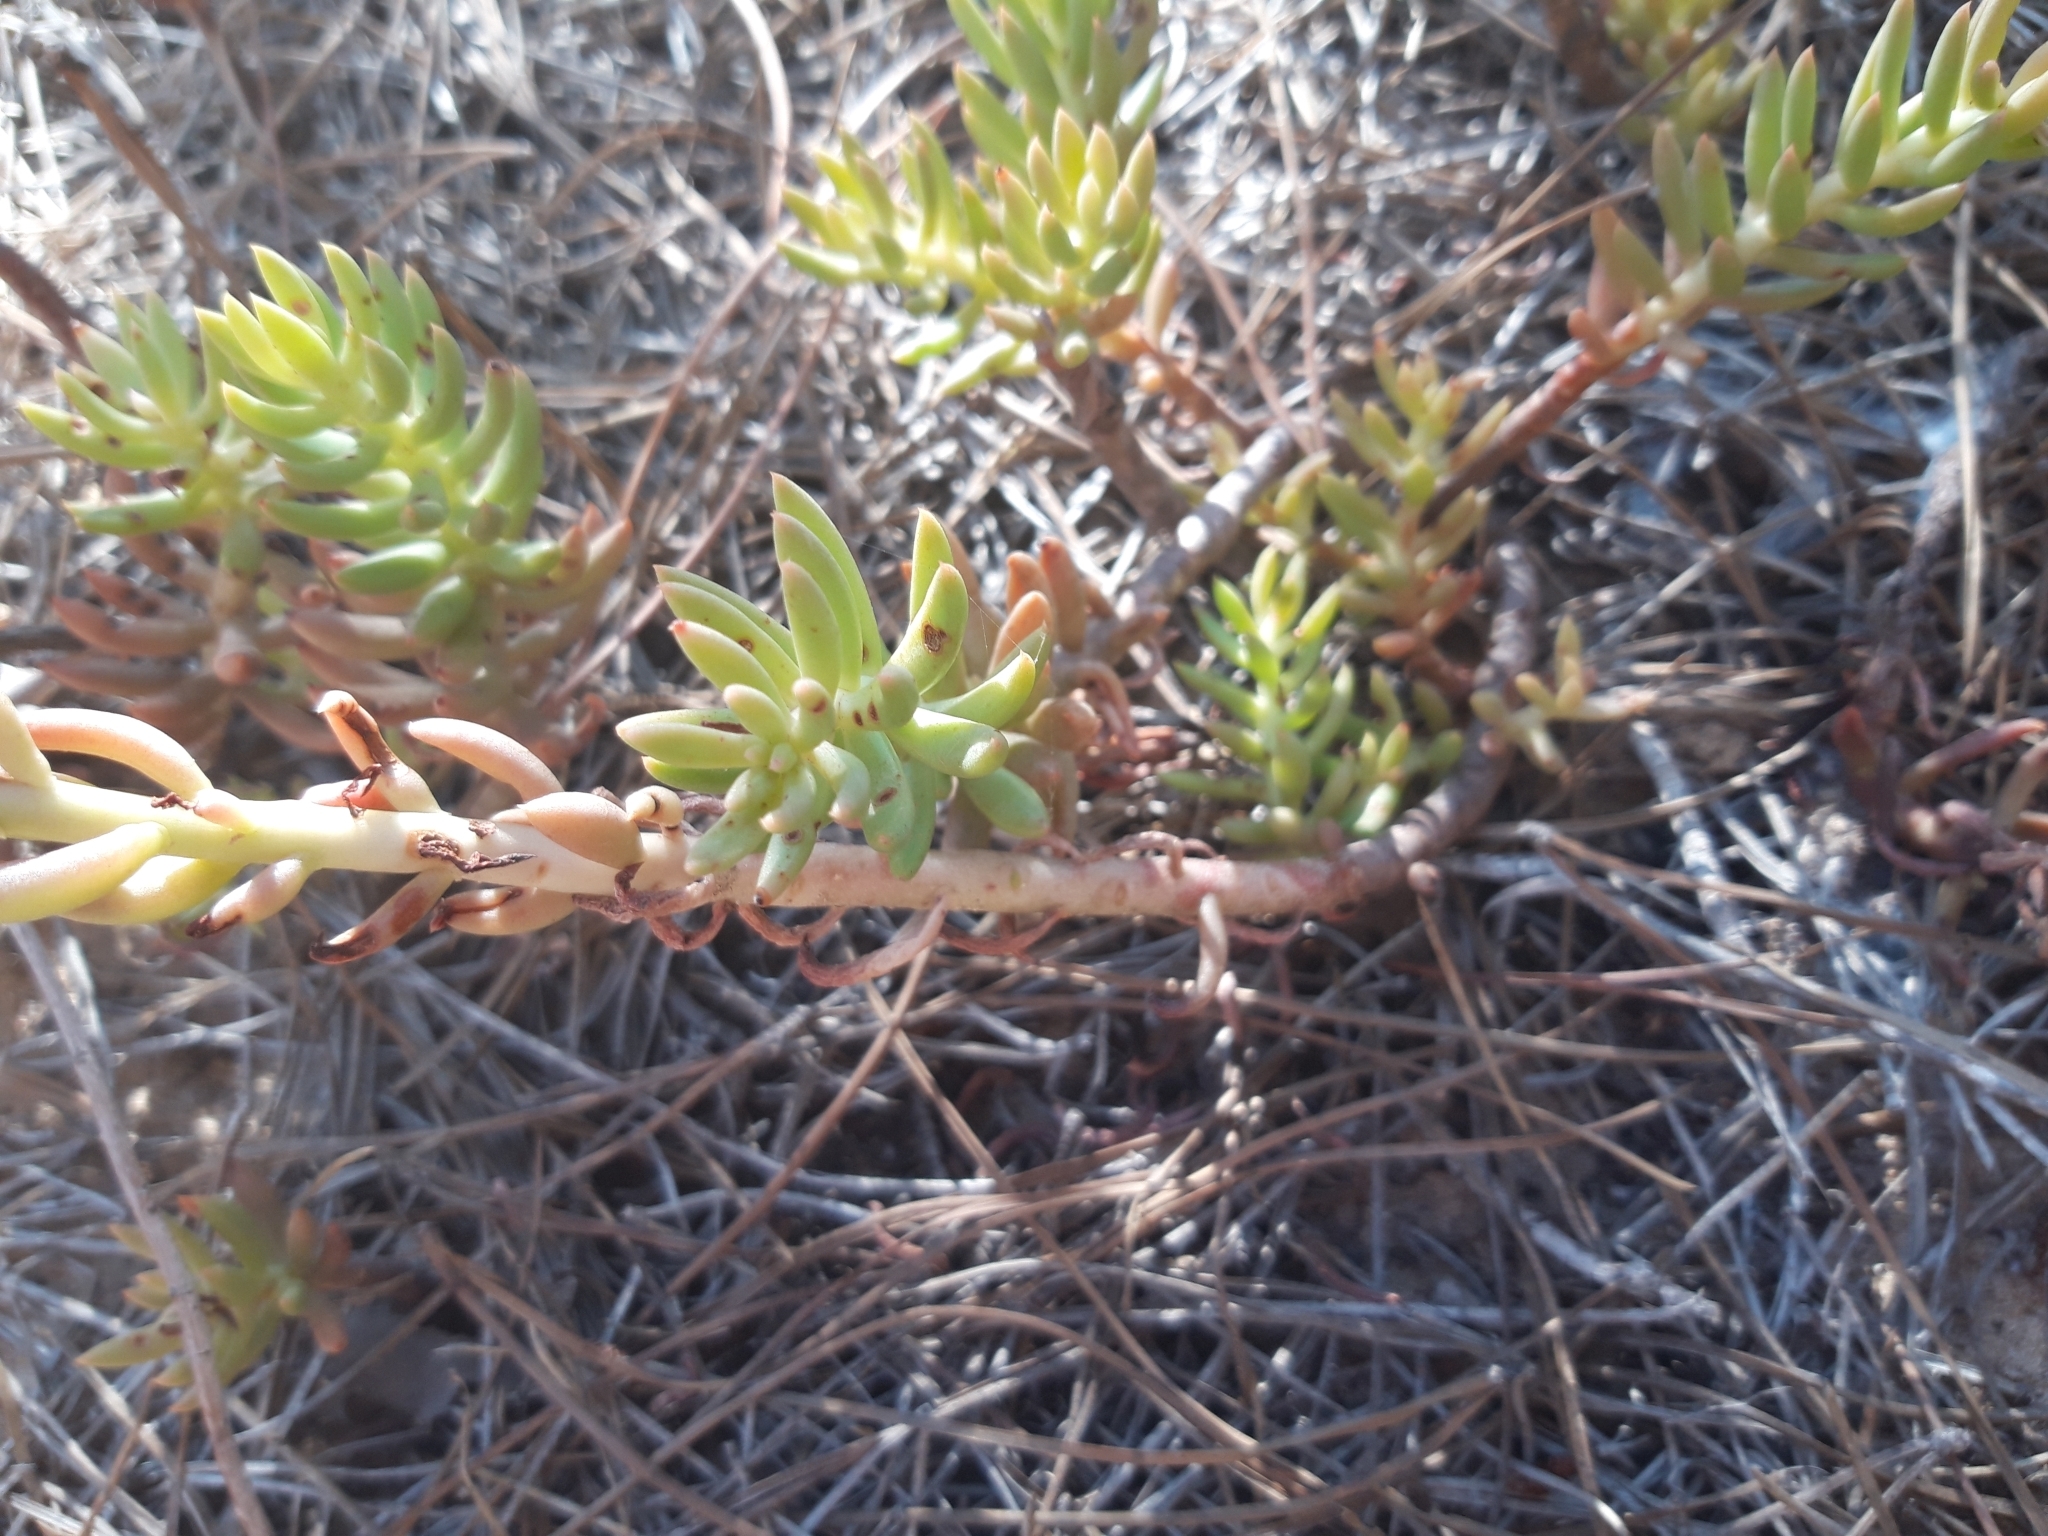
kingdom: Plantae
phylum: Tracheophyta
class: Magnoliopsida
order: Saxifragales
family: Crassulaceae
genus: Petrosedum
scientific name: Petrosedum sediforme
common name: Pale stonecrop
